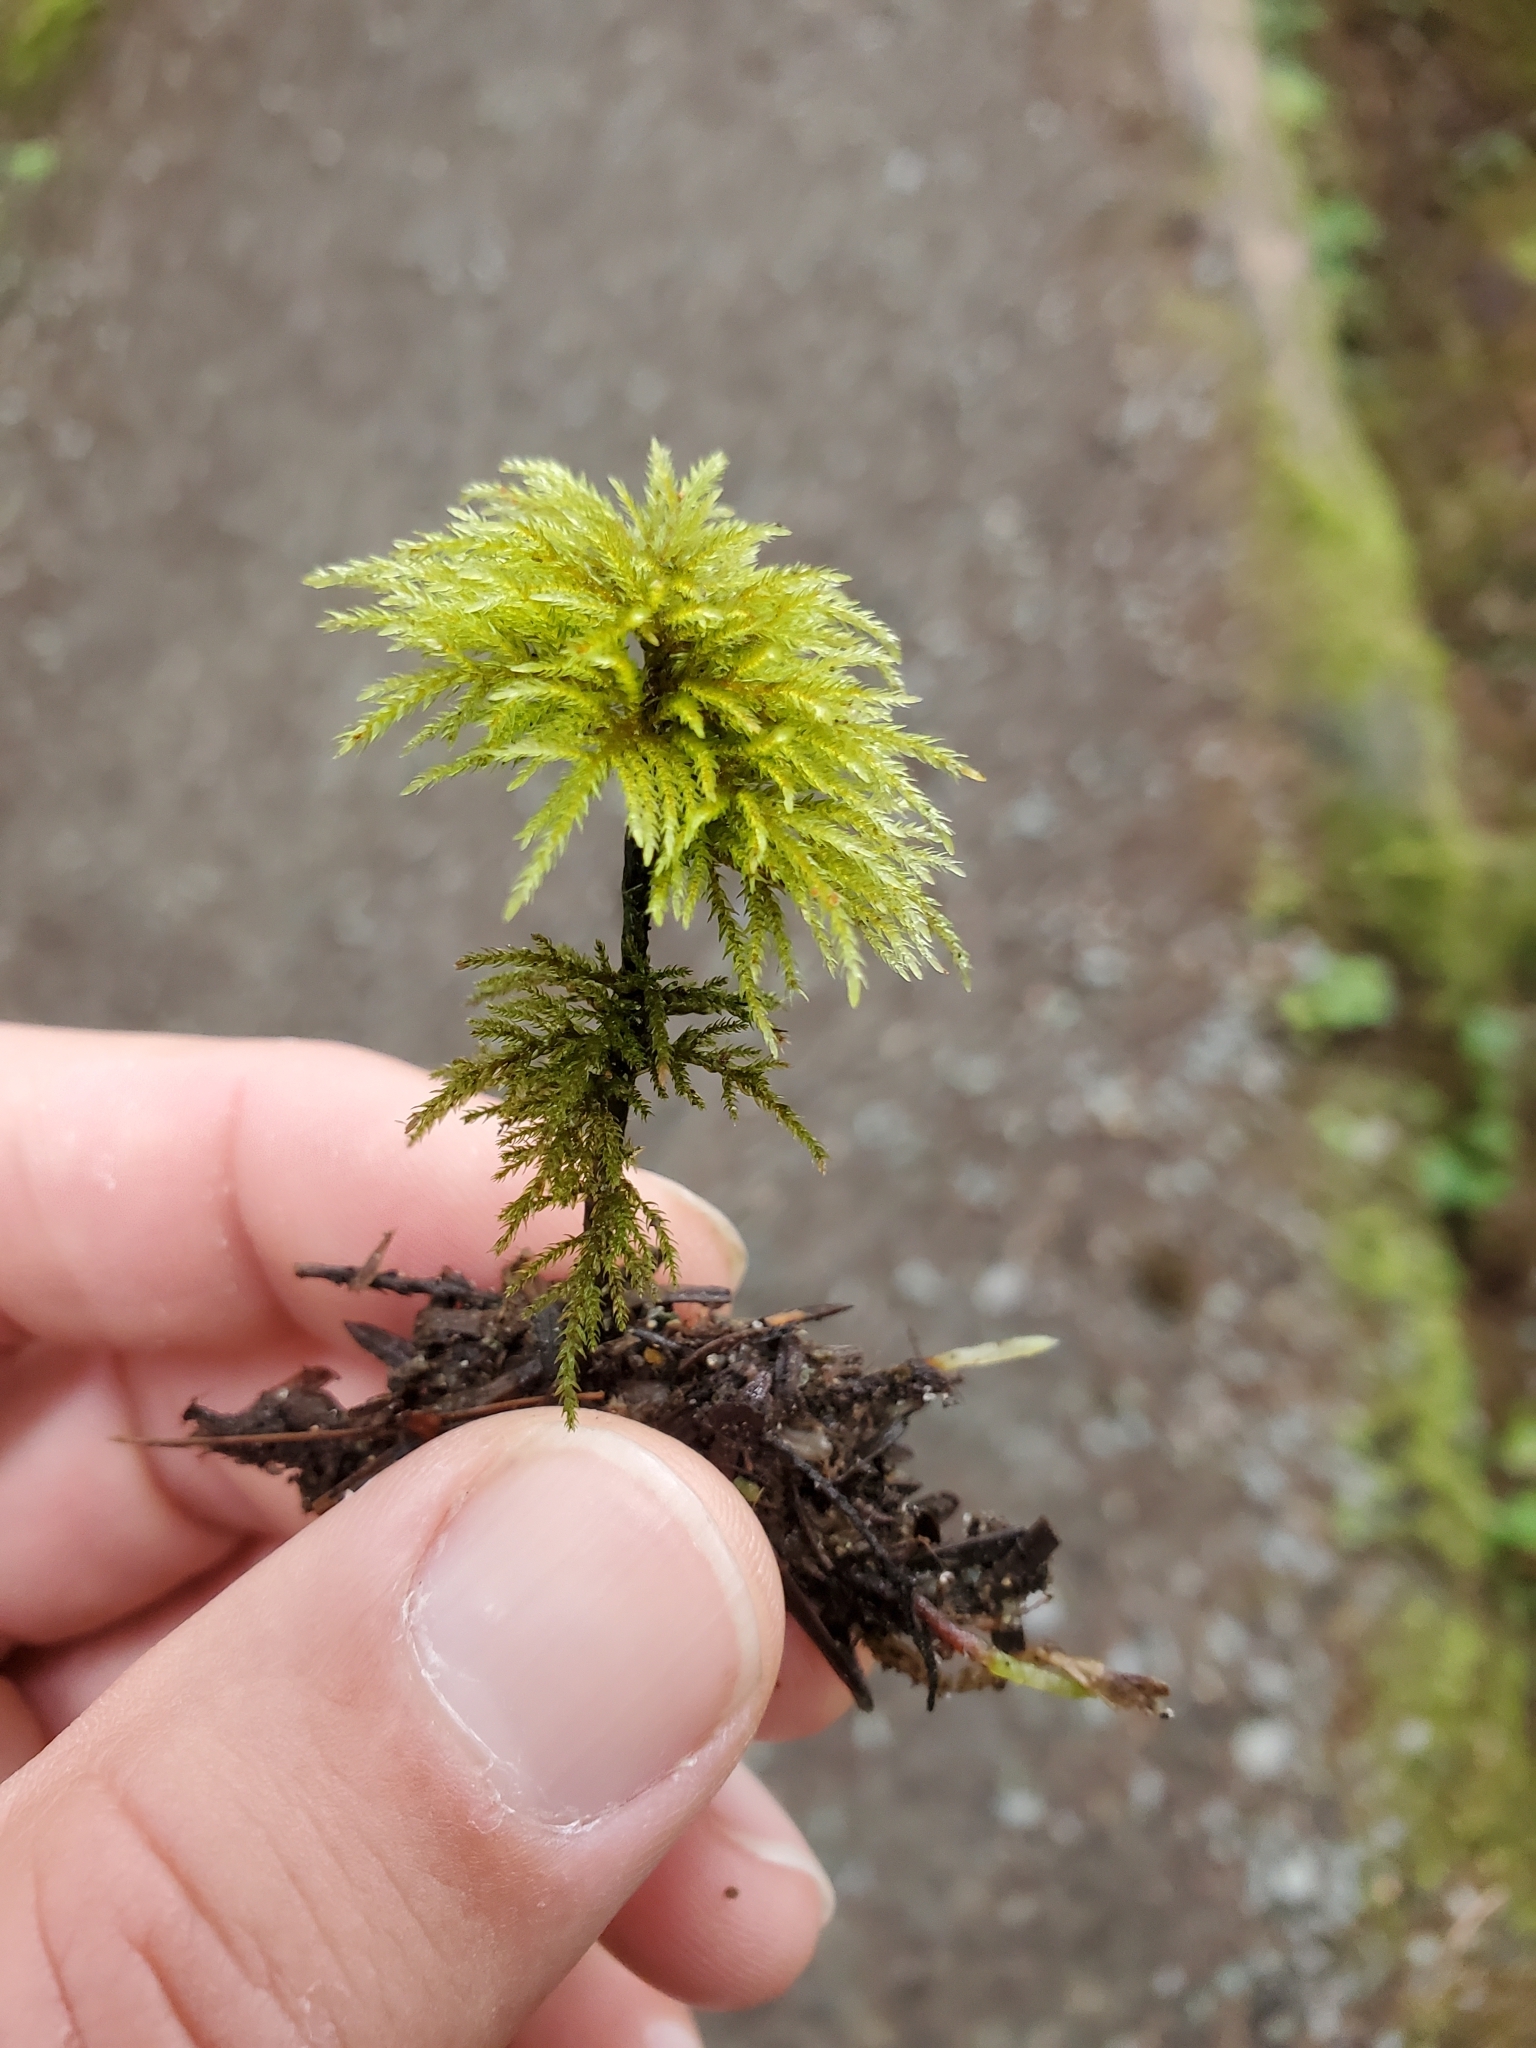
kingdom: Plantae
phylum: Bryophyta
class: Bryopsida
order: Bryales
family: Mniaceae
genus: Leucolepis
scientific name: Leucolepis acanthoneura
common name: Leucolepis umbrella moss
